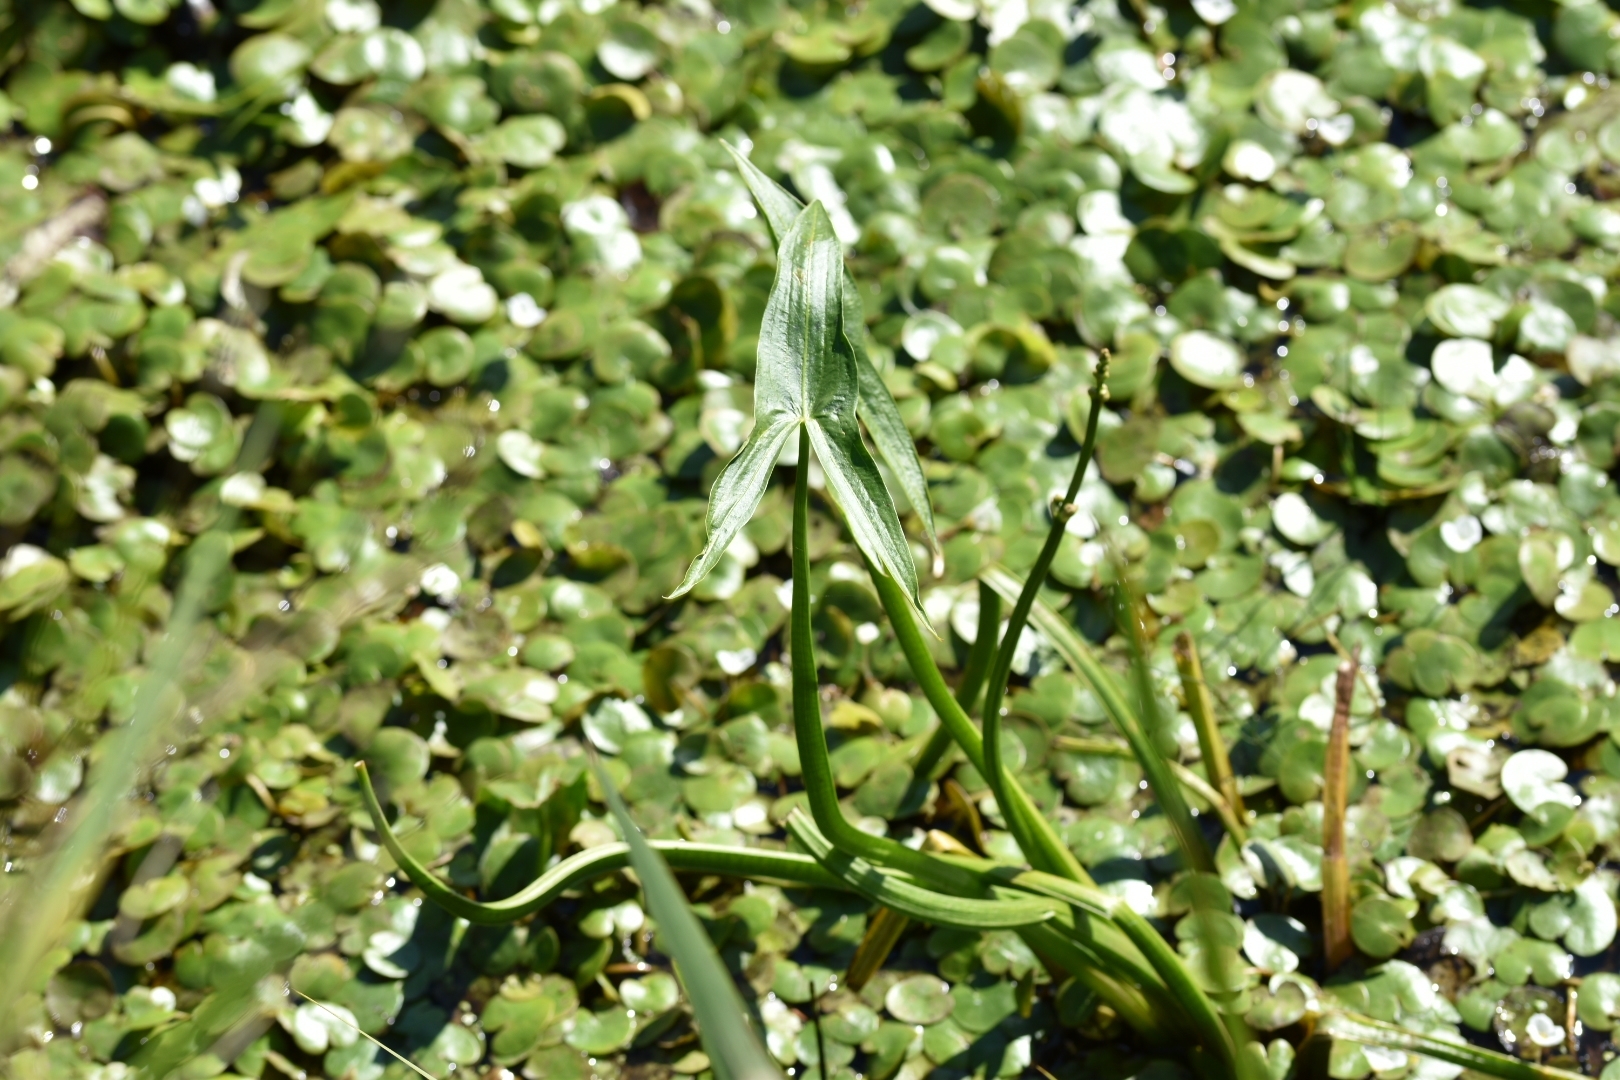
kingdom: Plantae
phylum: Tracheophyta
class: Liliopsida
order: Alismatales
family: Alismataceae
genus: Sagittaria
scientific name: Sagittaria sagittifolia
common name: Arrowhead
